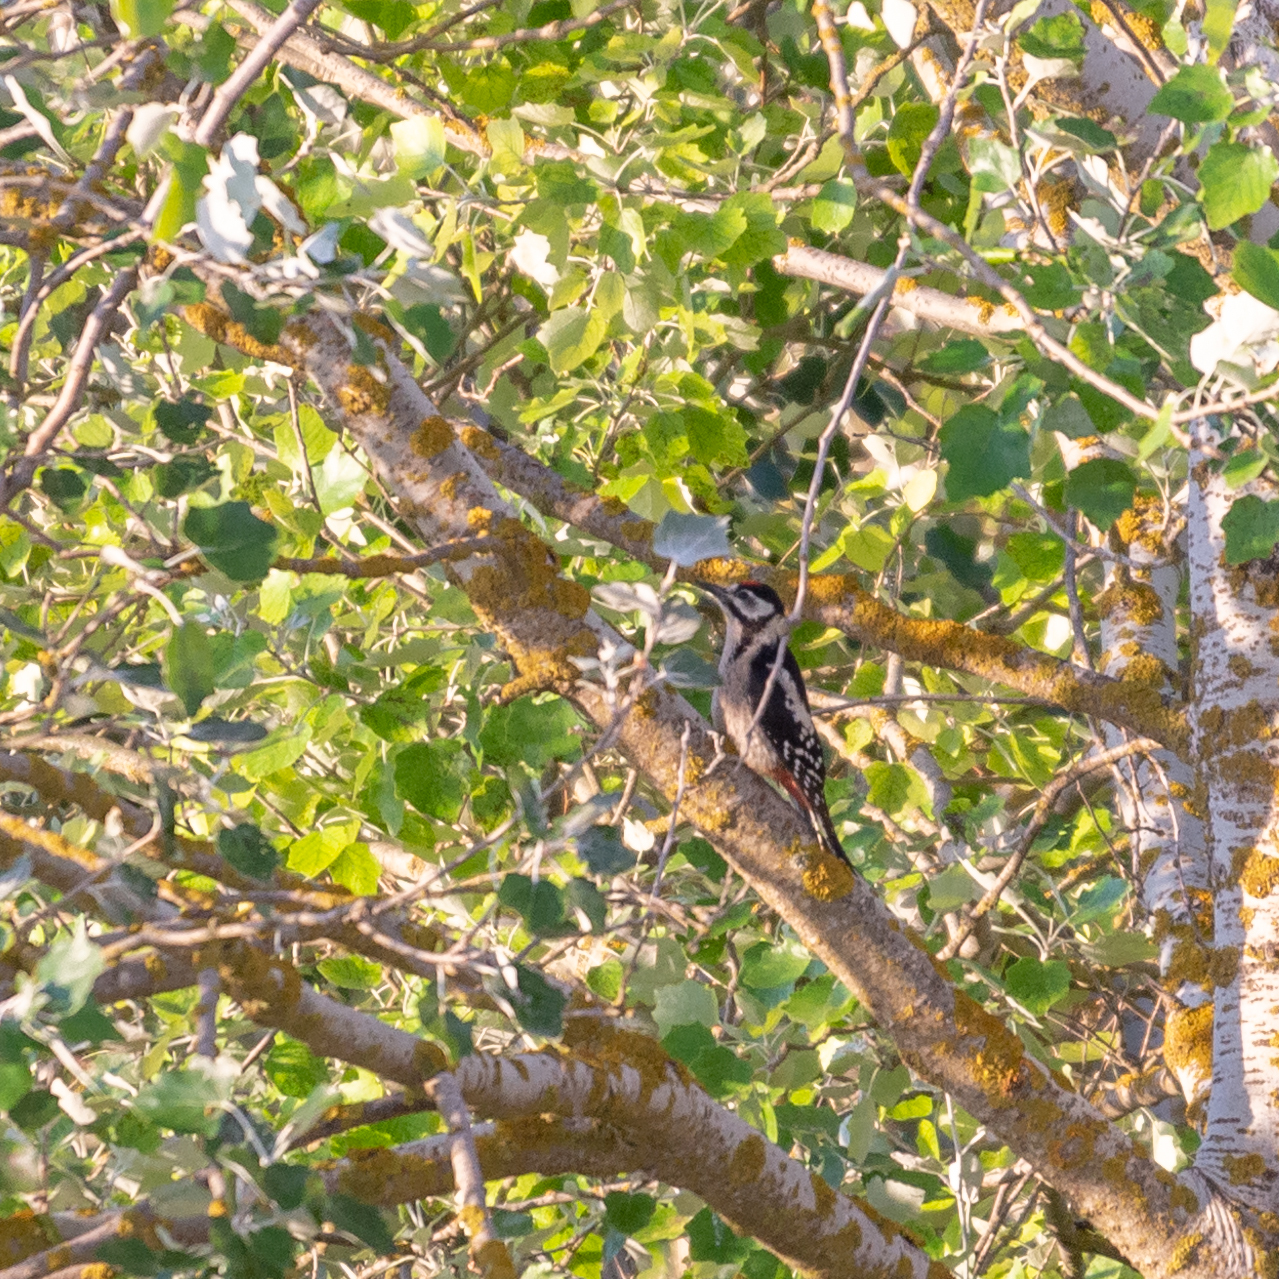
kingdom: Animalia
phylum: Chordata
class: Aves
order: Piciformes
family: Picidae
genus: Dendrocopos
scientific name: Dendrocopos major
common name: Great spotted woodpecker
